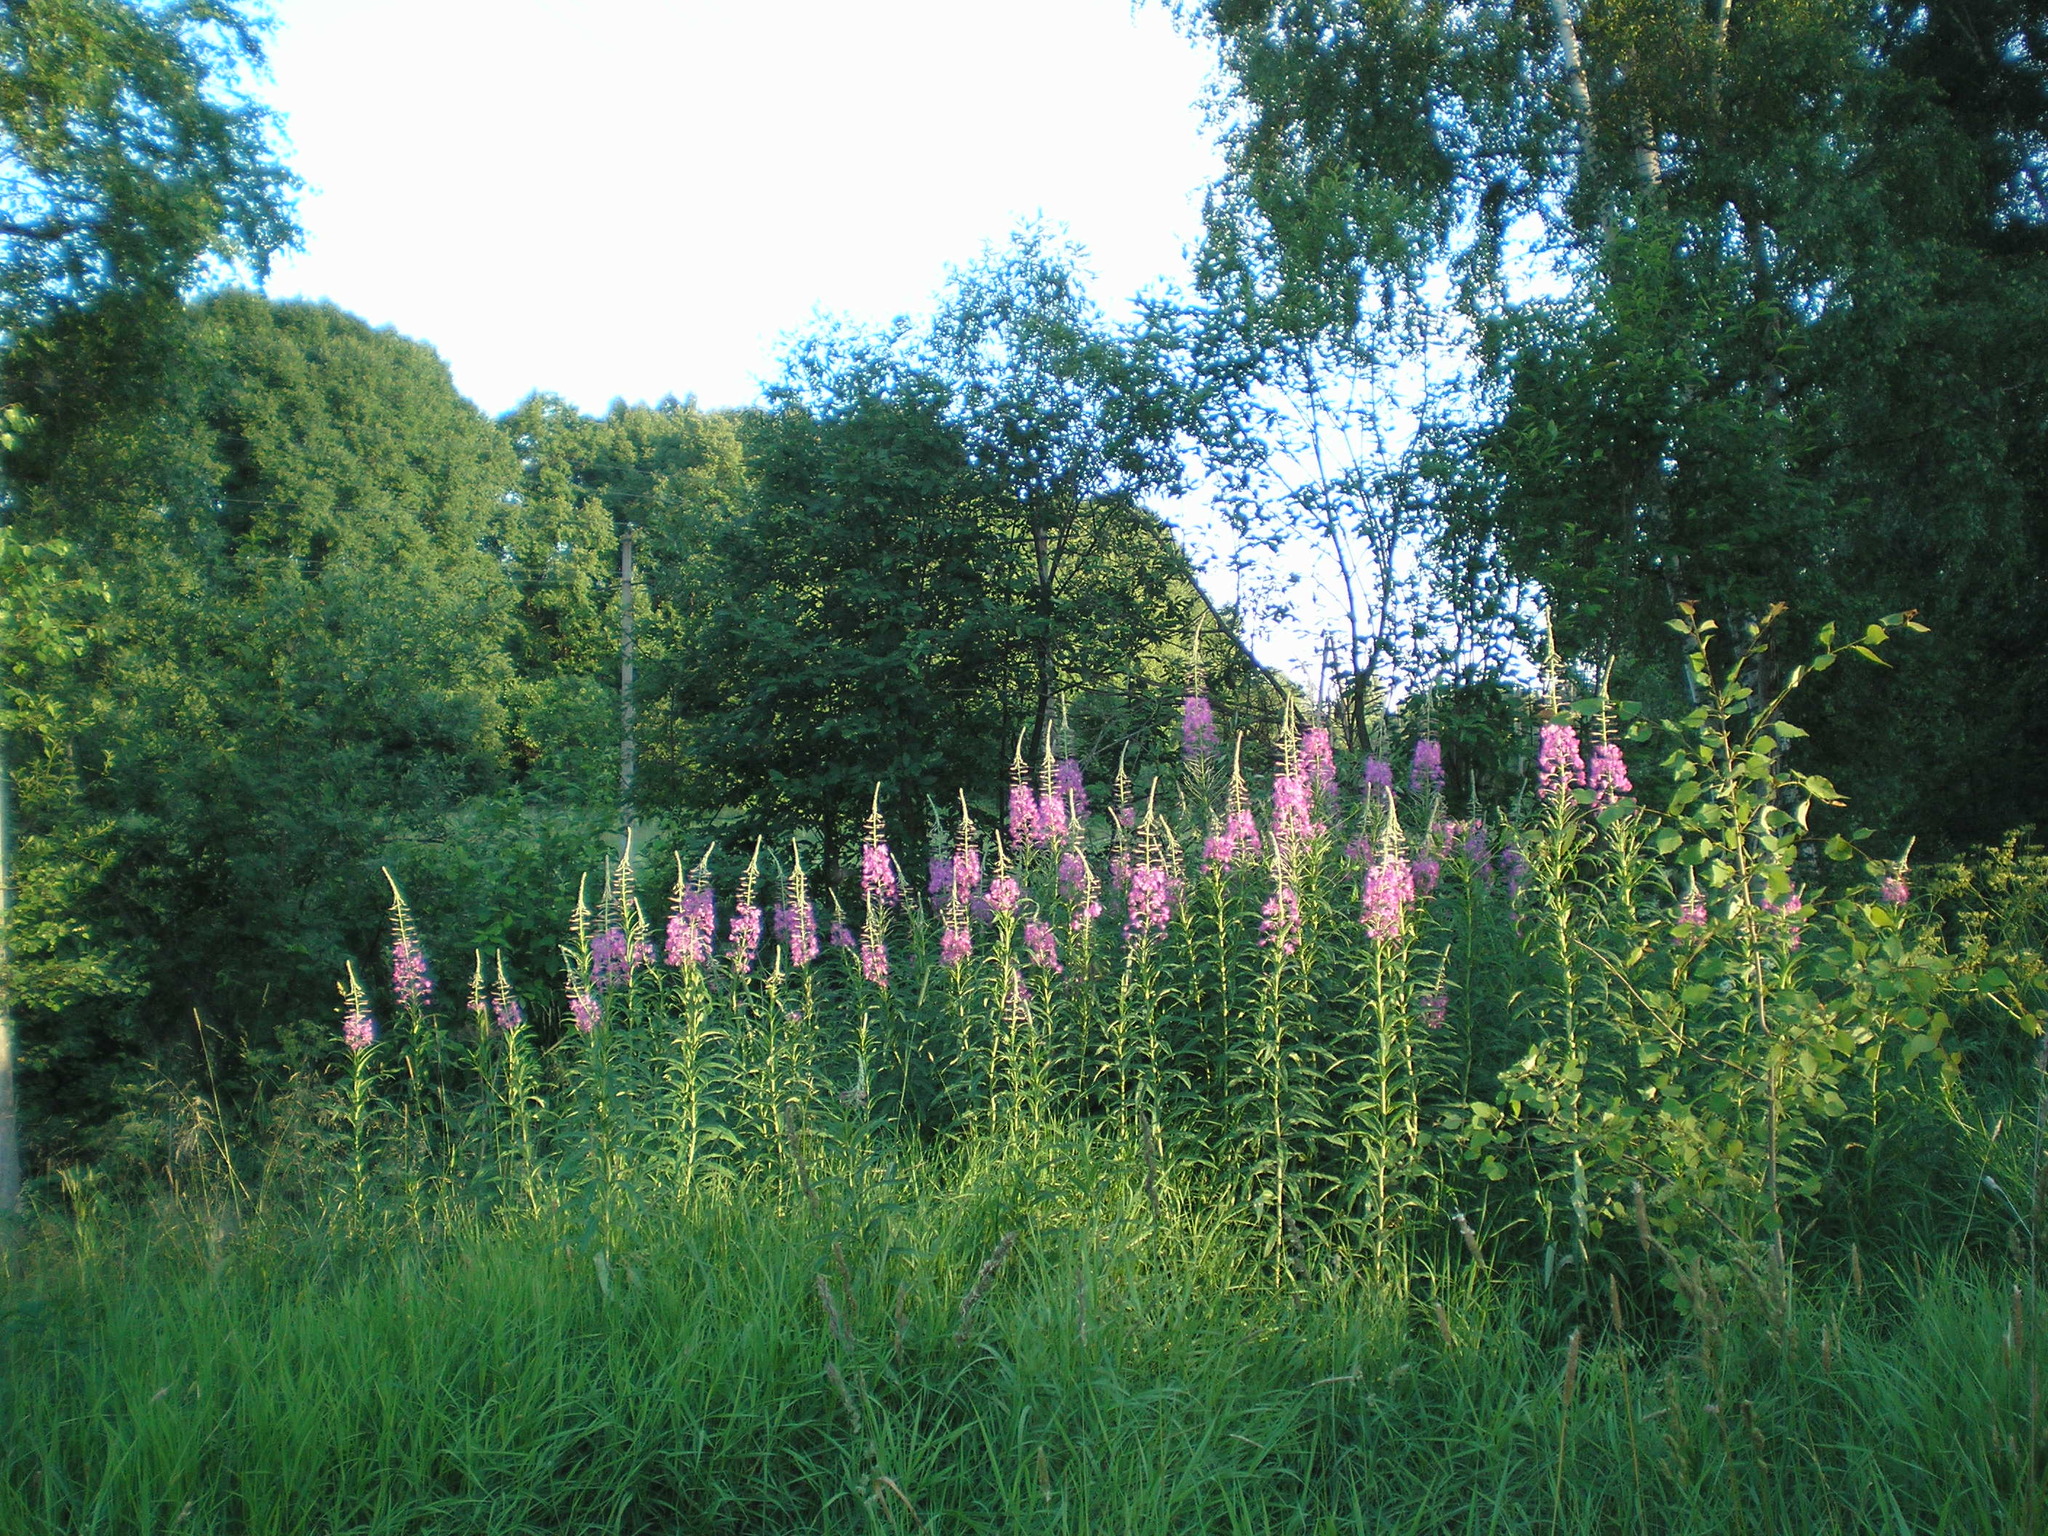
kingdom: Plantae
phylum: Tracheophyta
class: Magnoliopsida
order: Myrtales
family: Onagraceae
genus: Chamaenerion
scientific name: Chamaenerion angustifolium
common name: Fireweed
